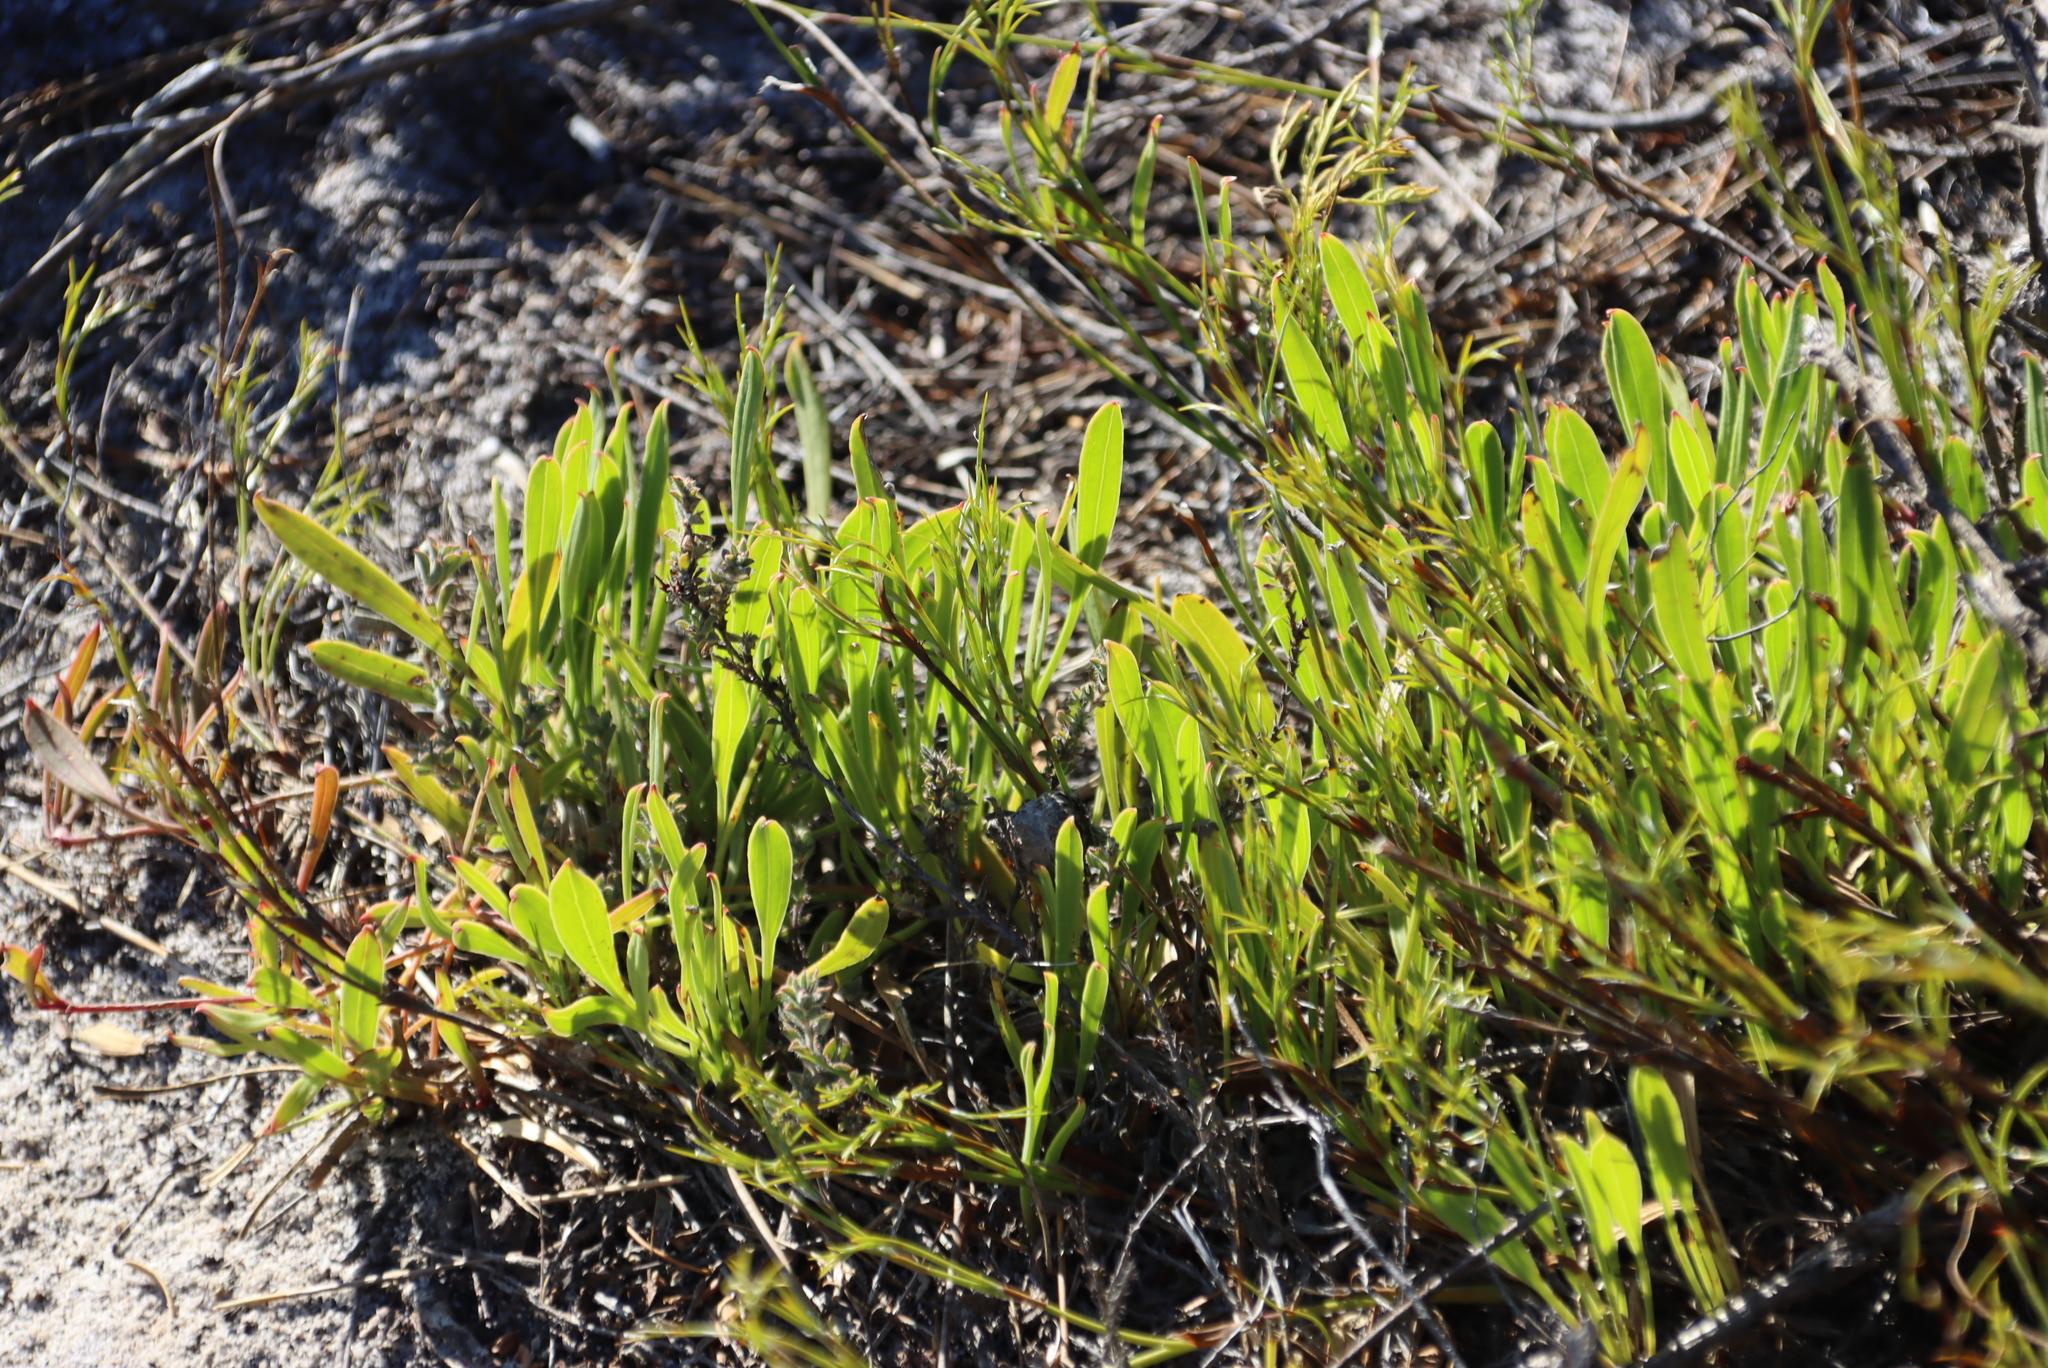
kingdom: Plantae
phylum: Tracheophyta
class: Magnoliopsida
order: Apiales
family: Apiaceae
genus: Centella
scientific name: Centella glabrata
